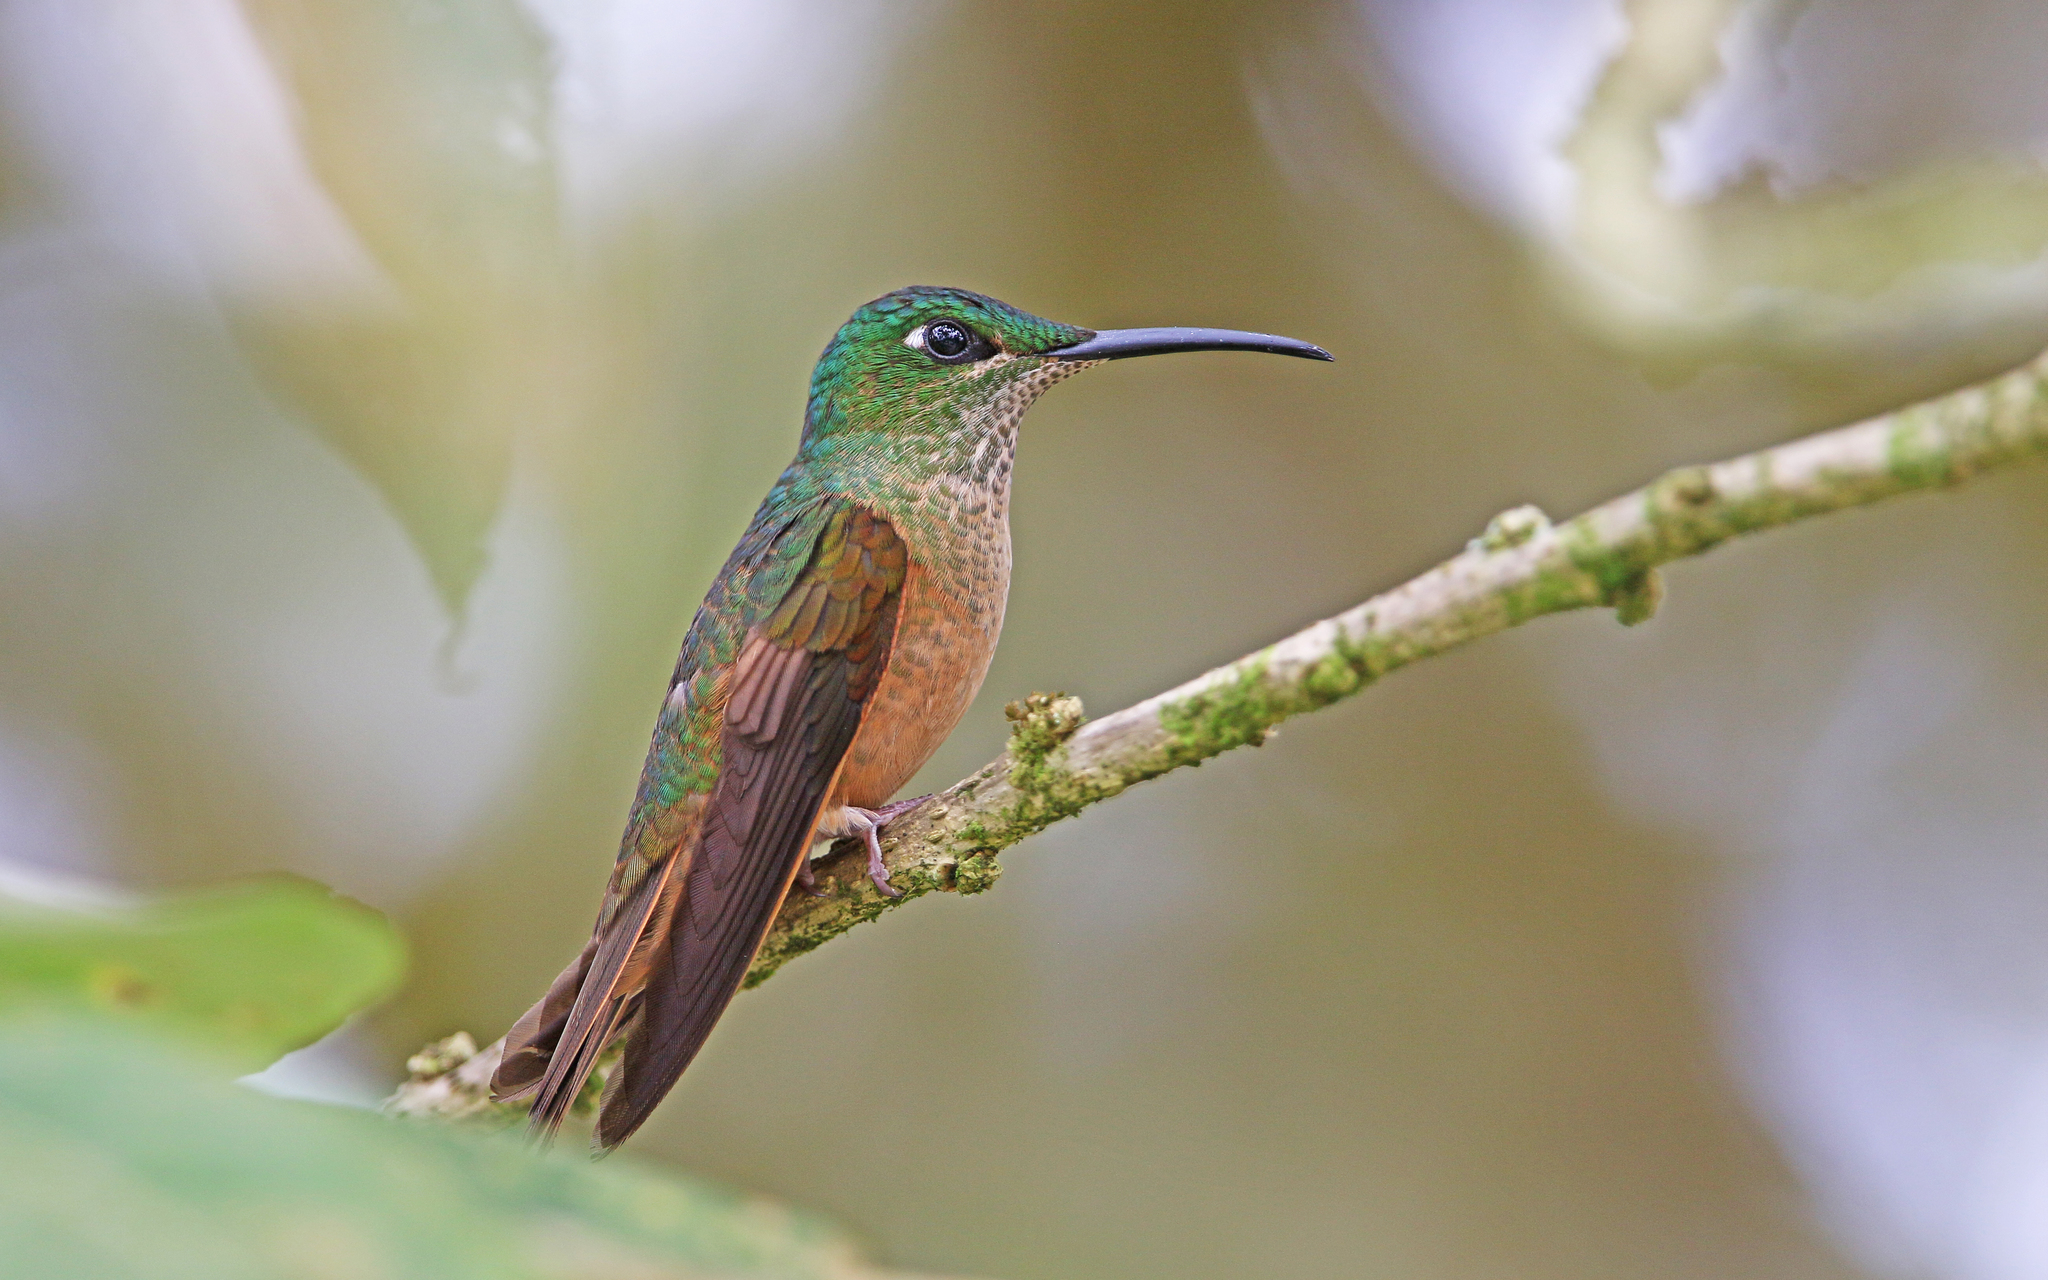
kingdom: Animalia
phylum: Chordata
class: Aves
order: Apodiformes
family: Trochilidae
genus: Heliodoxa
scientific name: Heliodoxa rubinoides
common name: Fawn-breasted brilliant
